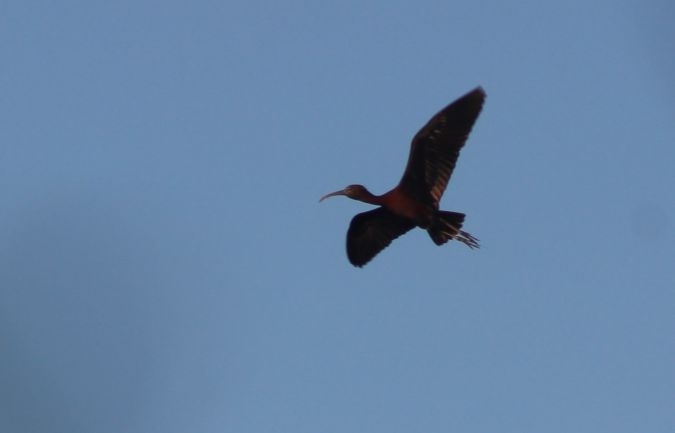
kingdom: Animalia
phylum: Chordata
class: Aves
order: Pelecaniformes
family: Threskiornithidae
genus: Plegadis
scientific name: Plegadis falcinellus
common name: Glossy ibis
